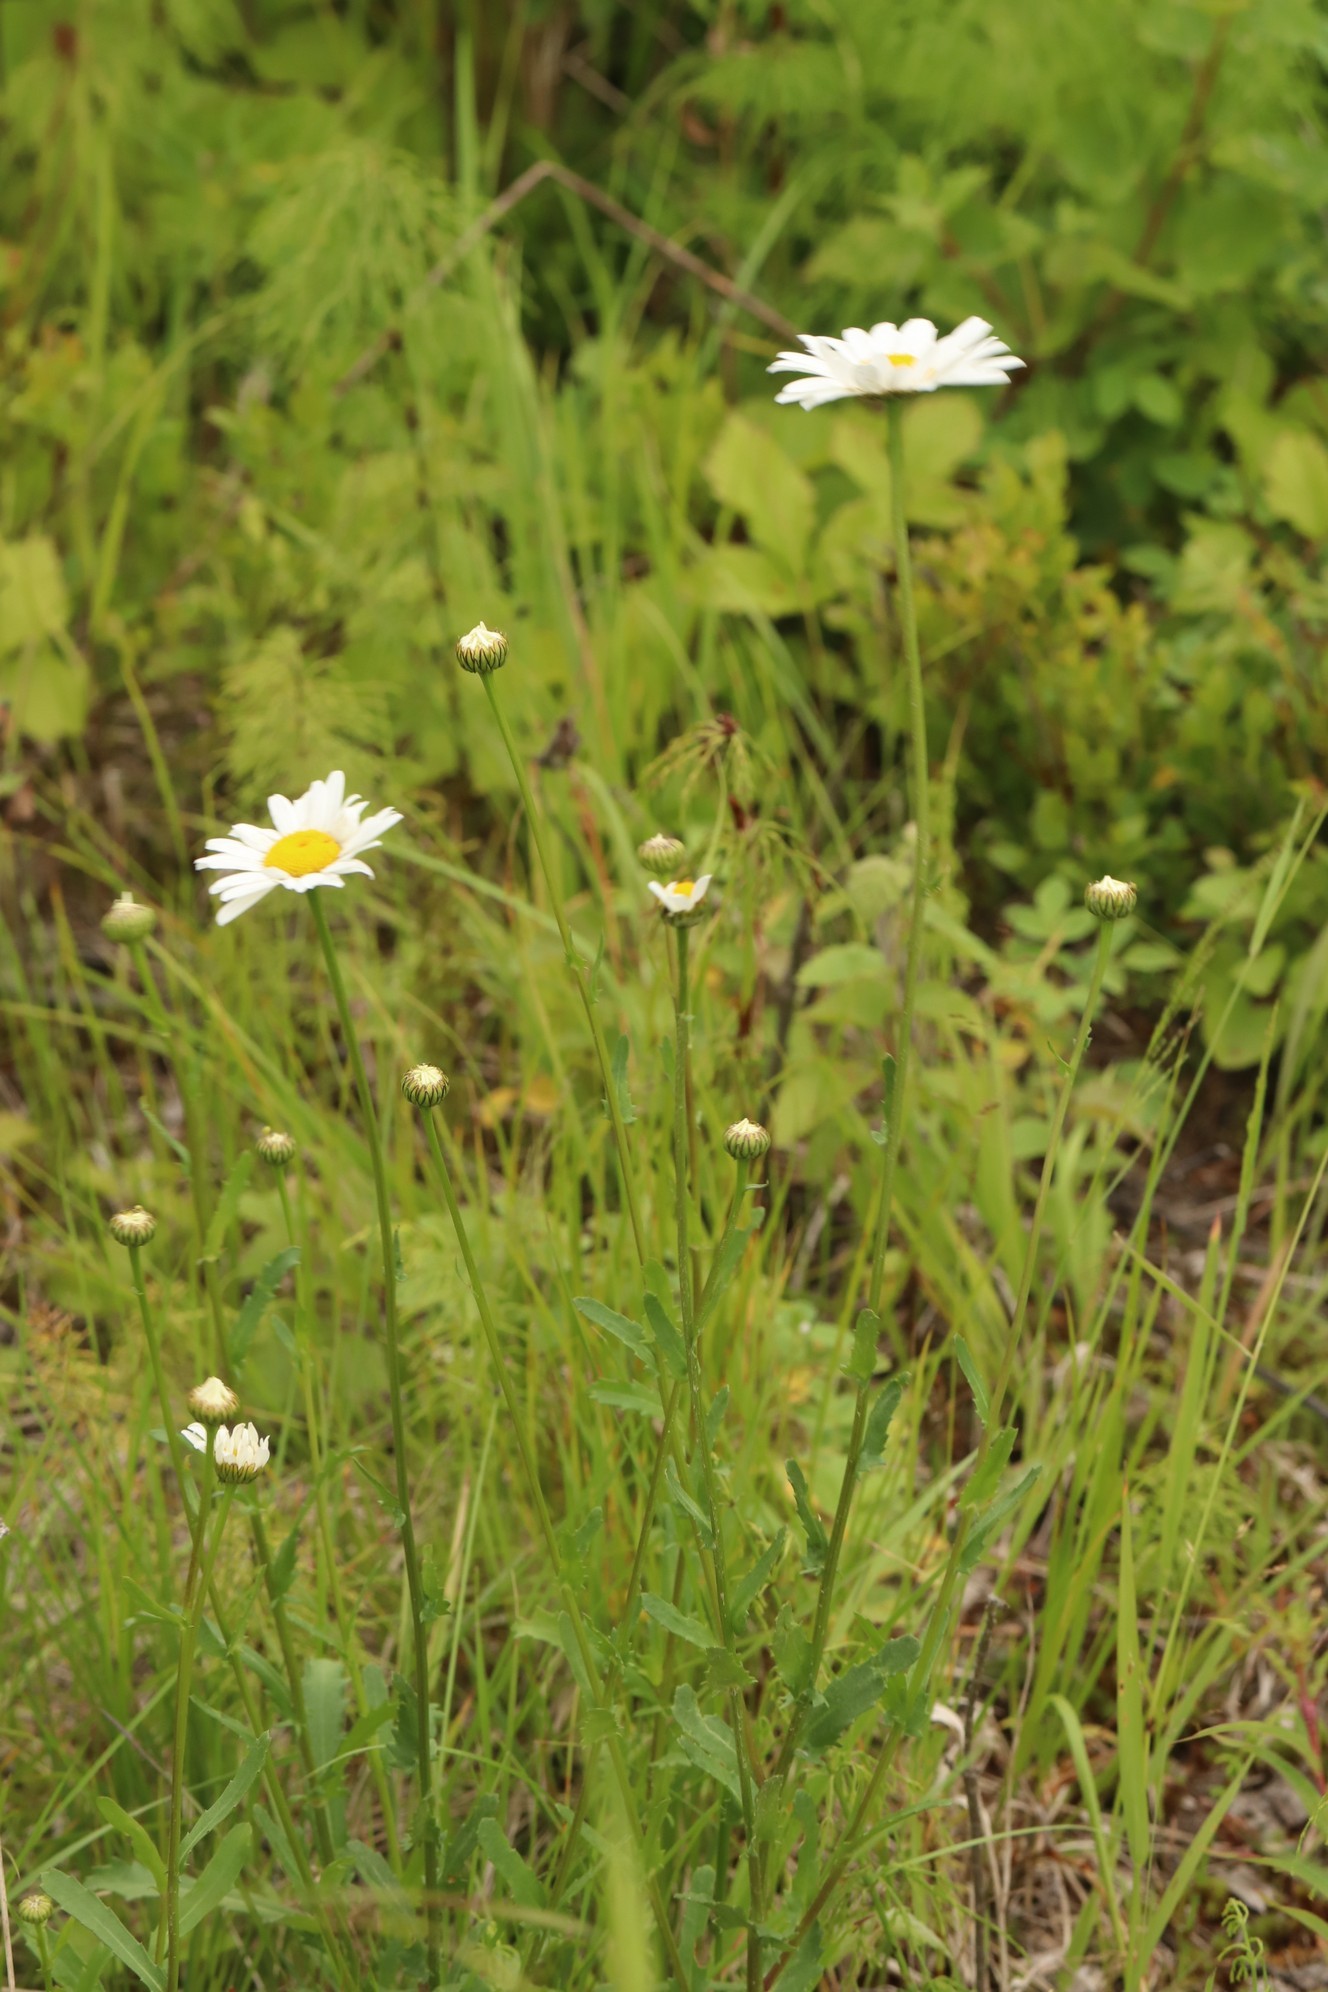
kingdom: Plantae
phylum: Tracheophyta
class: Magnoliopsida
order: Asterales
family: Asteraceae
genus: Leucanthemum
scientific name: Leucanthemum ircutianum
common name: Daisy
